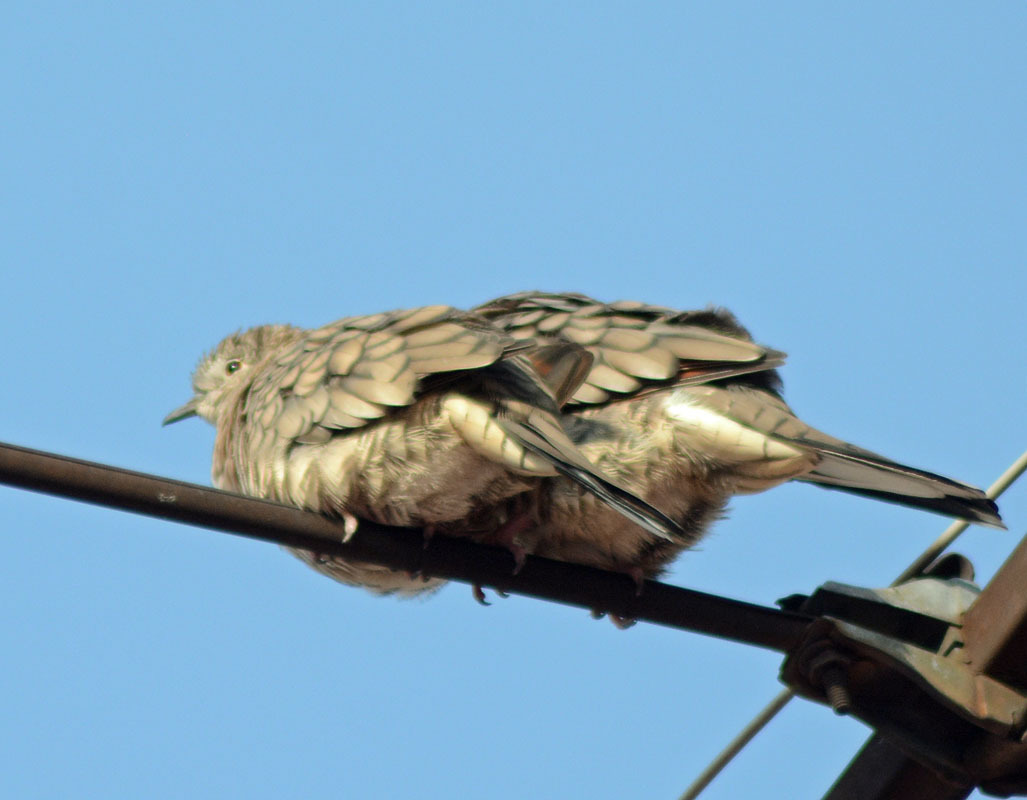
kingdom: Animalia
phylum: Chordata
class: Aves
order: Columbiformes
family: Columbidae
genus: Columbina
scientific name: Columbina inca
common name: Inca dove
